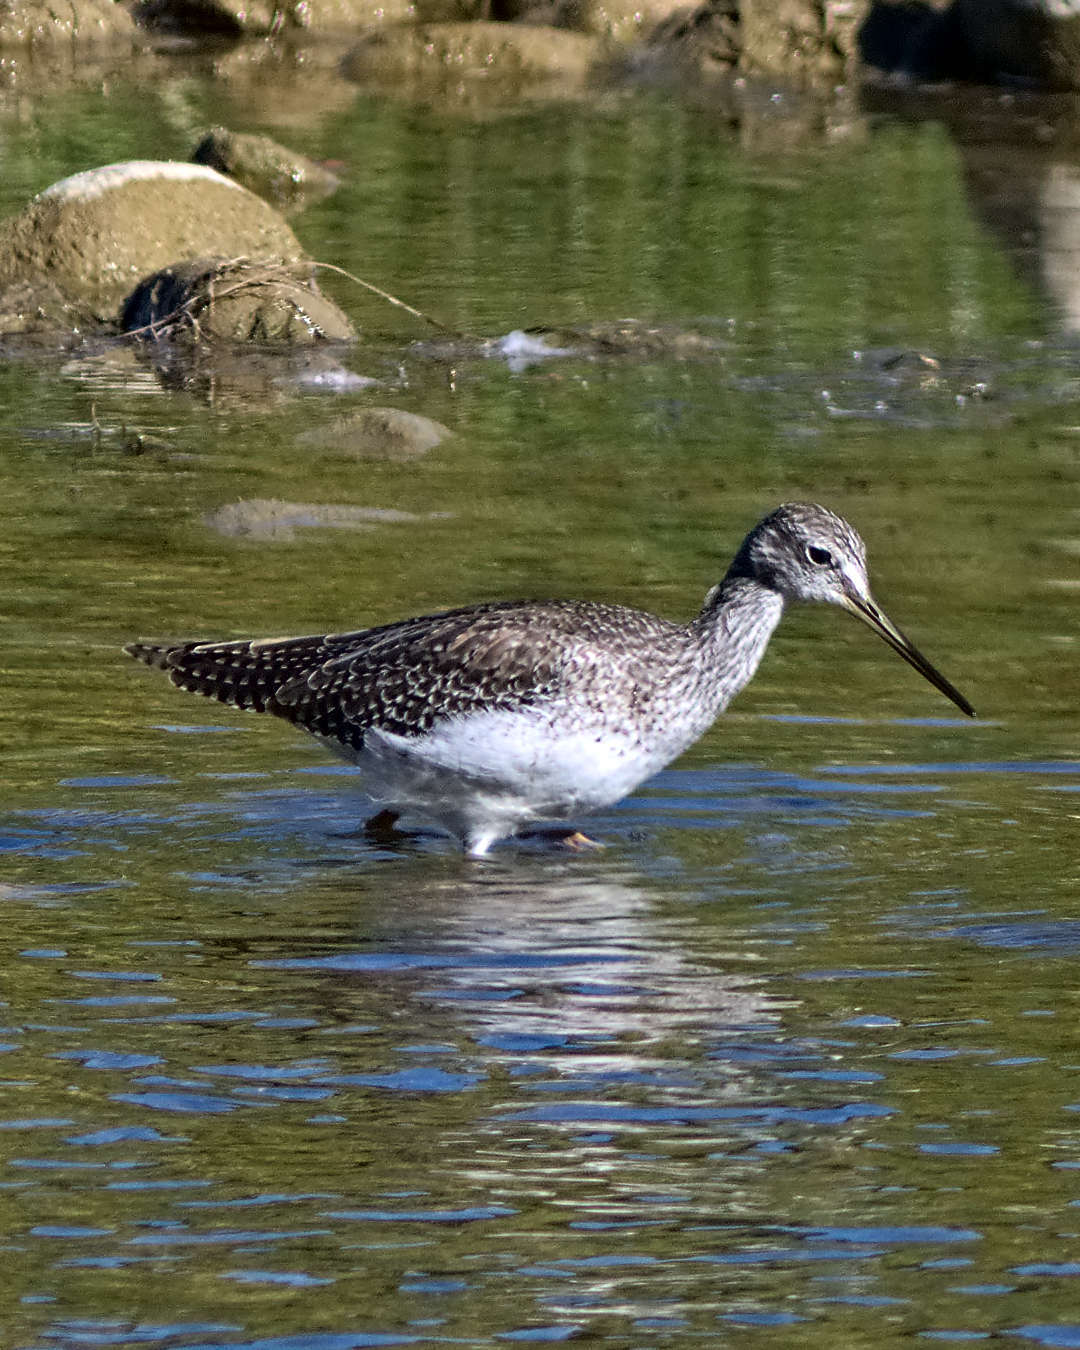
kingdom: Animalia
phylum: Chordata
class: Aves
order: Charadriiformes
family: Scolopacidae
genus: Tringa
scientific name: Tringa melanoleuca
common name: Greater yellowlegs
